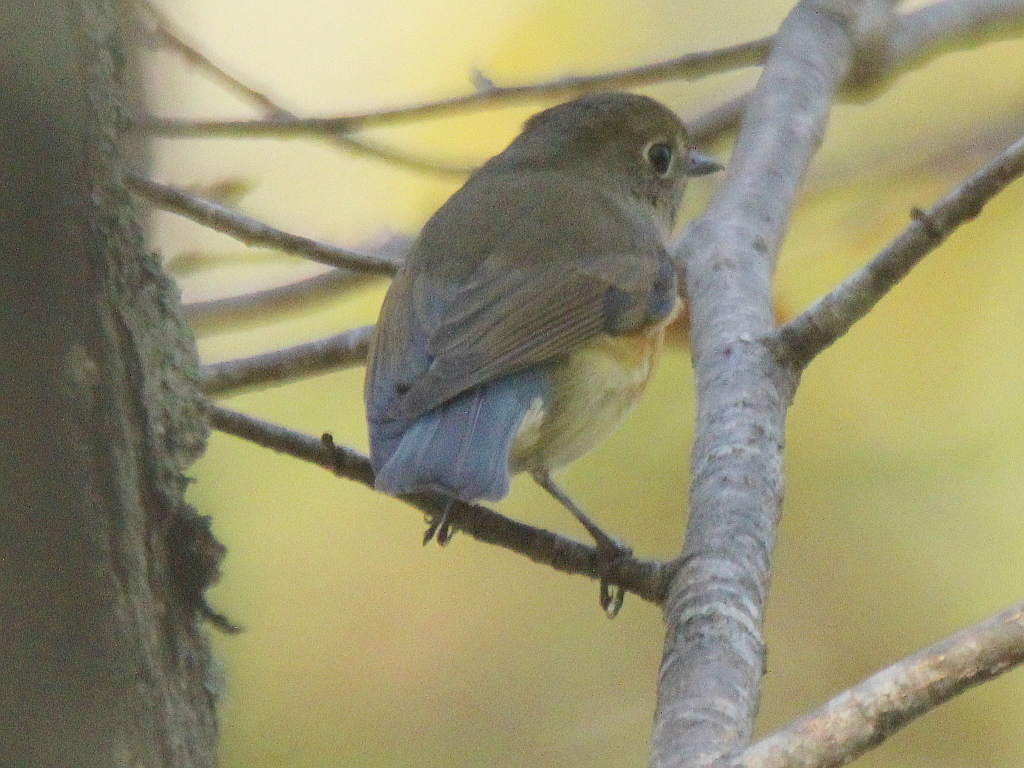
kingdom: Animalia
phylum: Chordata
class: Aves
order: Passeriformes
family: Muscicapidae
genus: Tarsiger
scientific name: Tarsiger cyanurus
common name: Red-flanked bluetail
